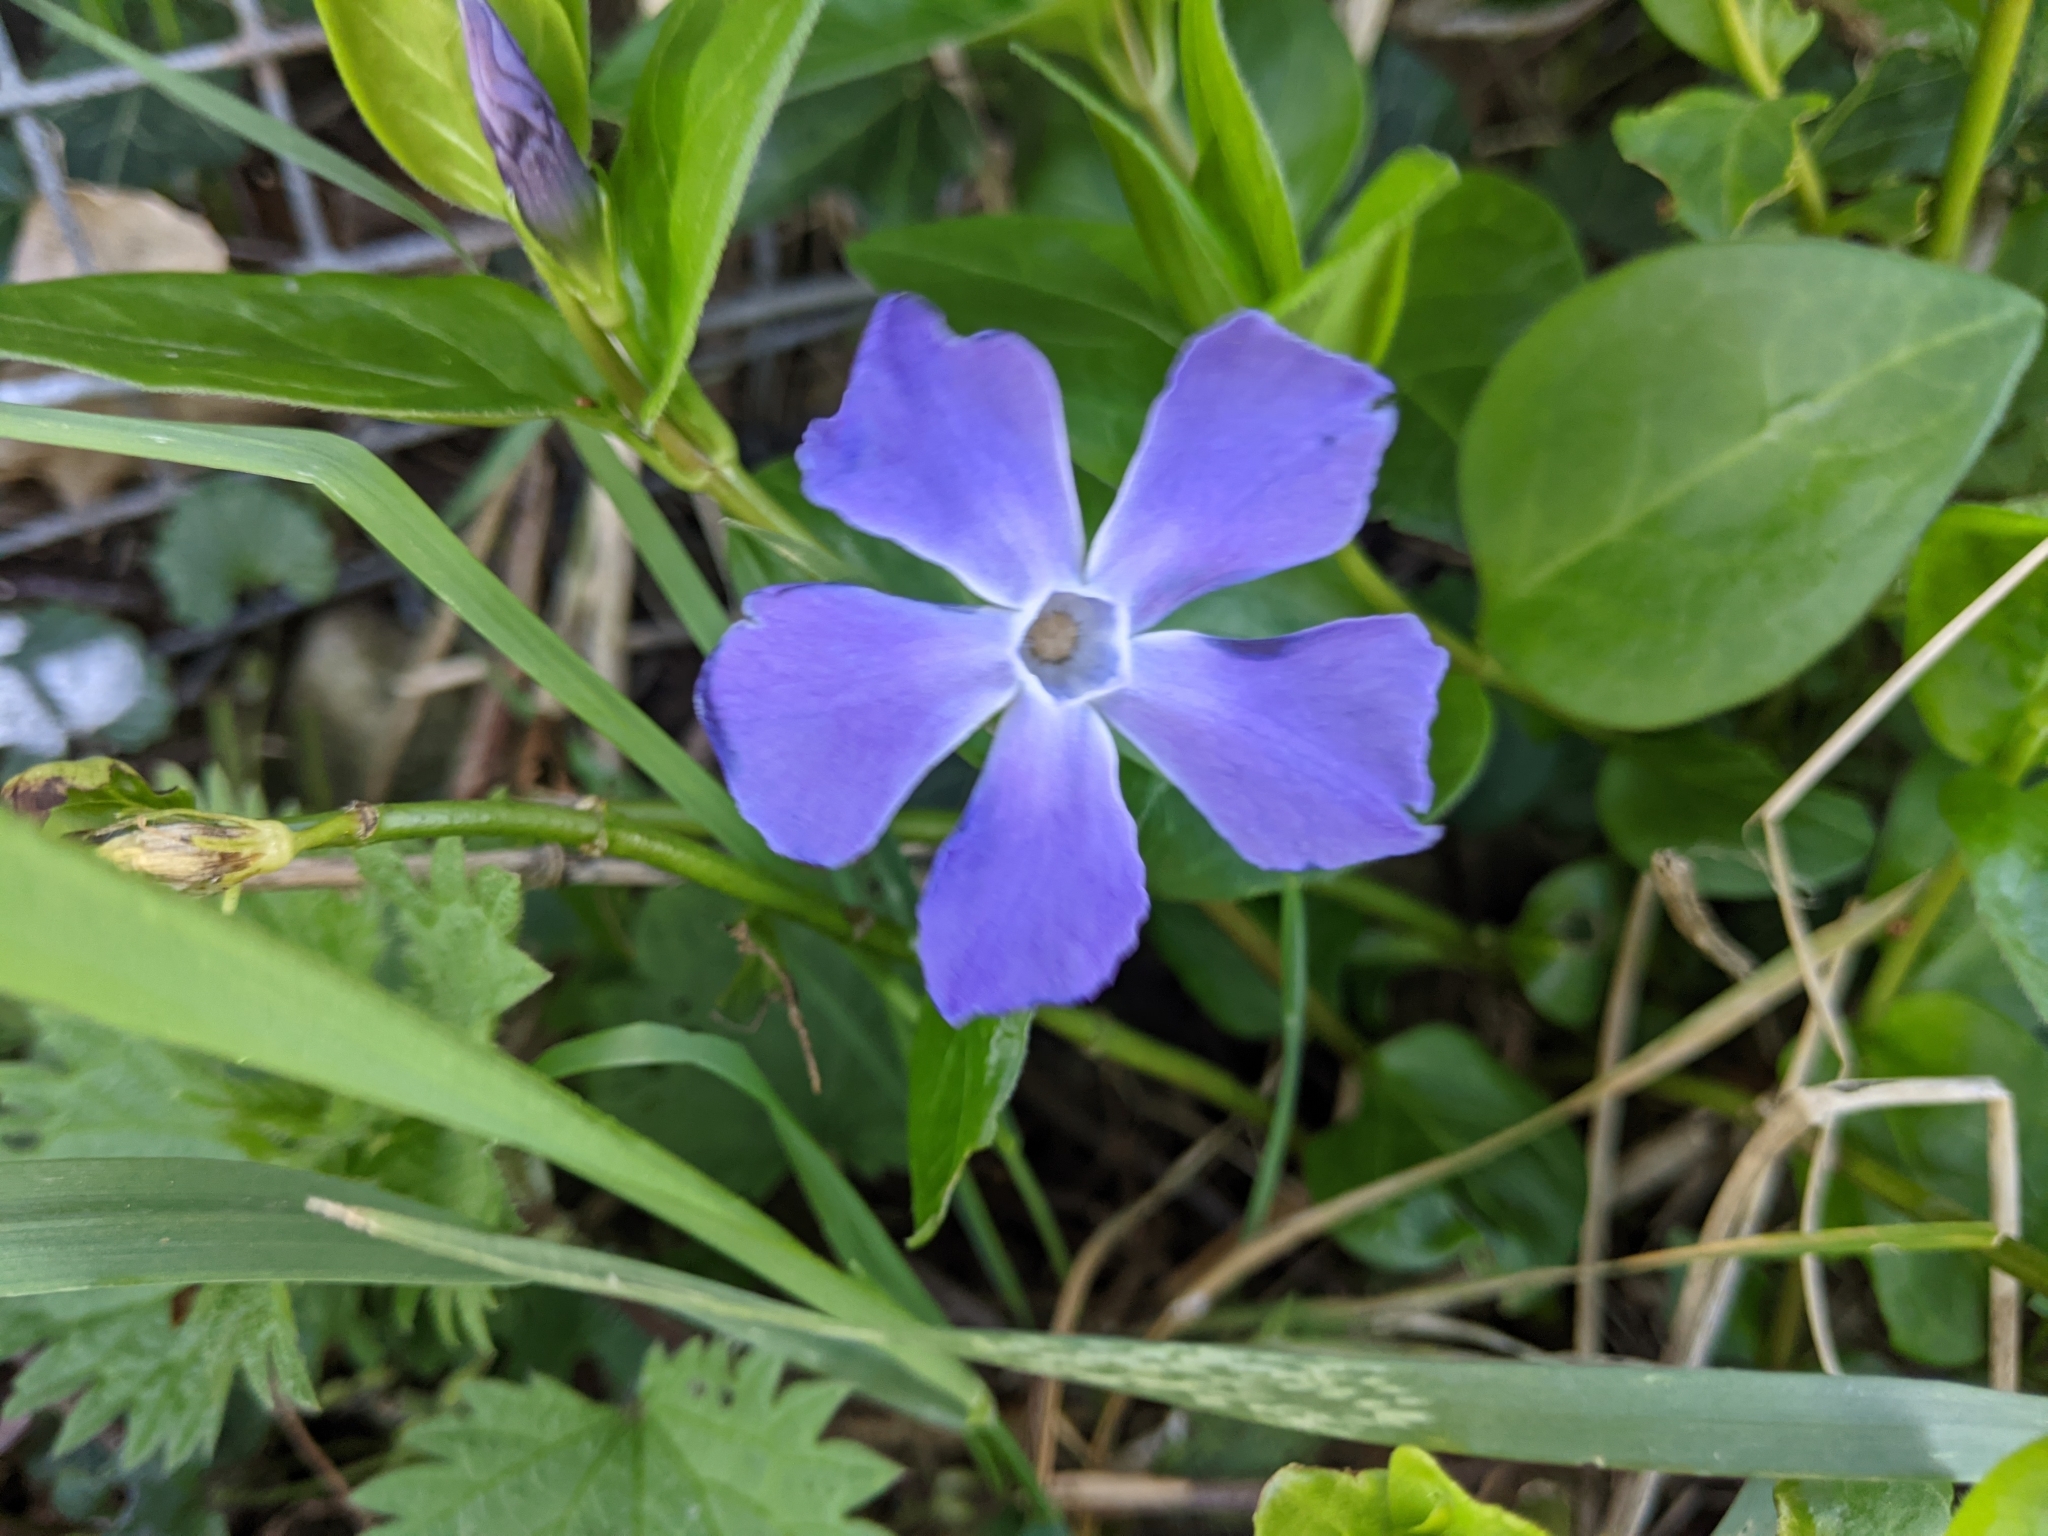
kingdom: Plantae
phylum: Tracheophyta
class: Magnoliopsida
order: Gentianales
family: Apocynaceae
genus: Vinca
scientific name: Vinca major
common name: Greater periwinkle
